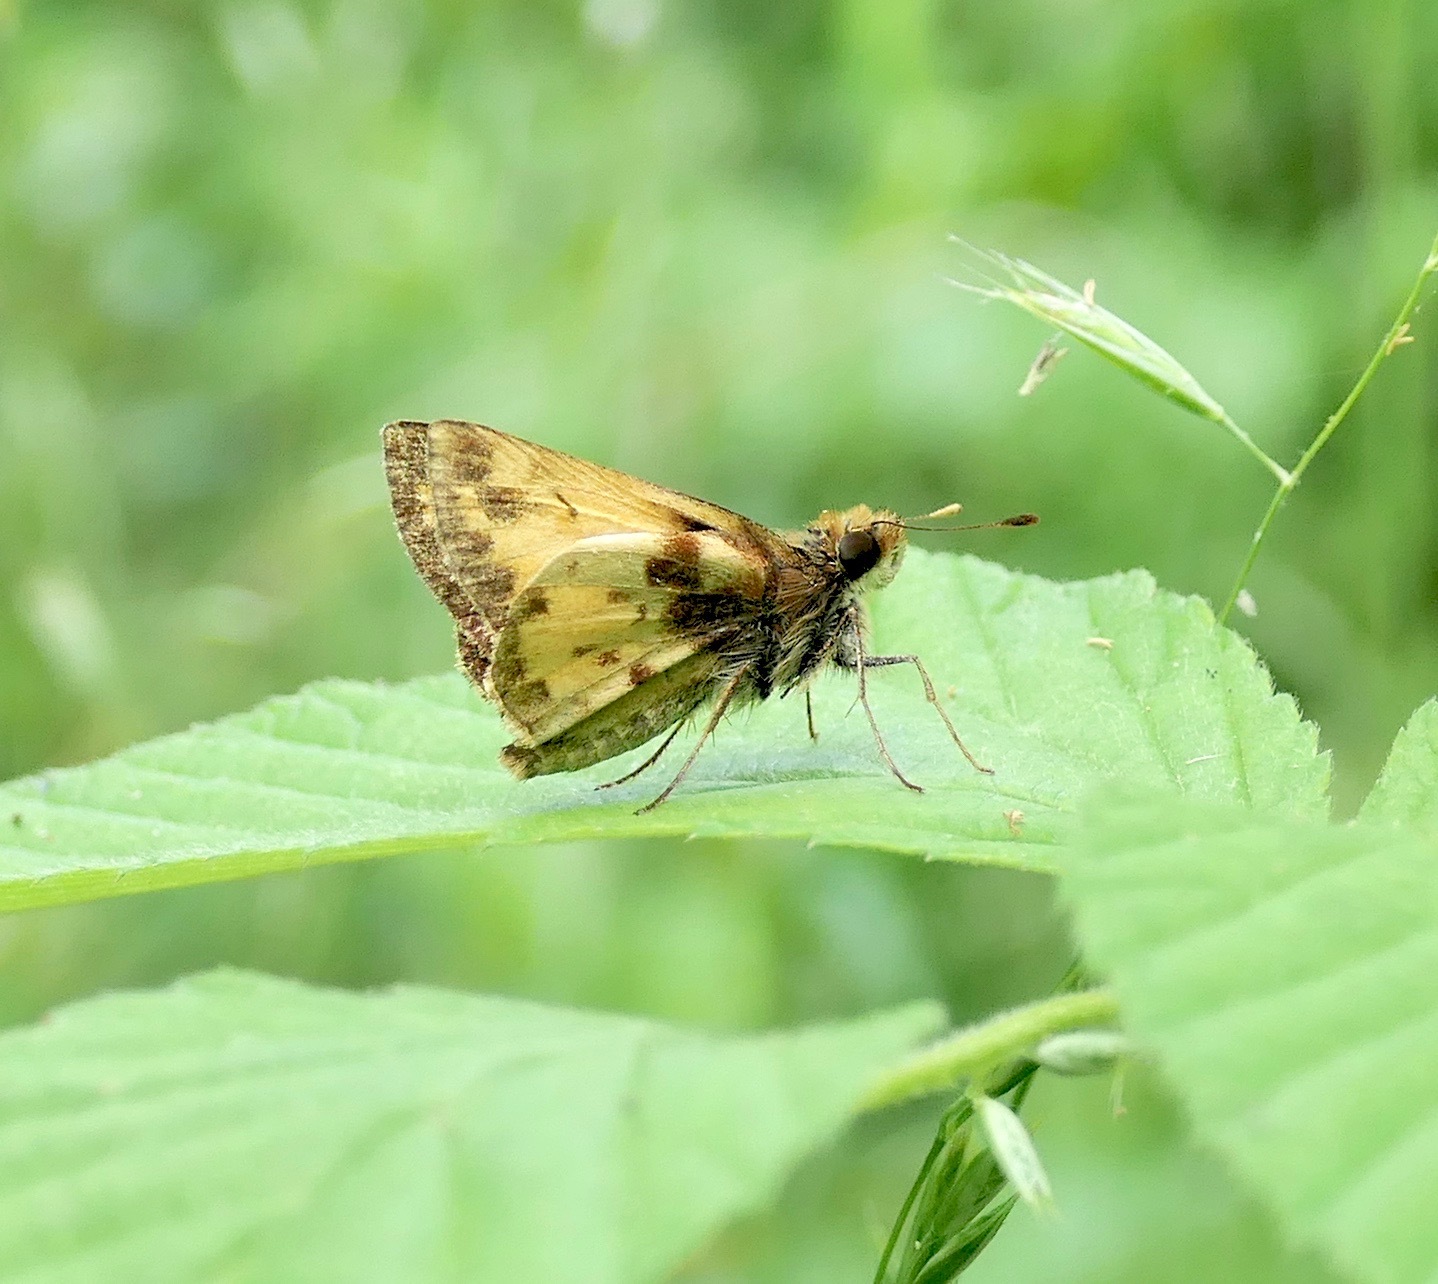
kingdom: Animalia
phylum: Arthropoda
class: Insecta
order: Lepidoptera
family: Hesperiidae
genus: Lon
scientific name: Lon zabulon
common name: Zabulon skipper
